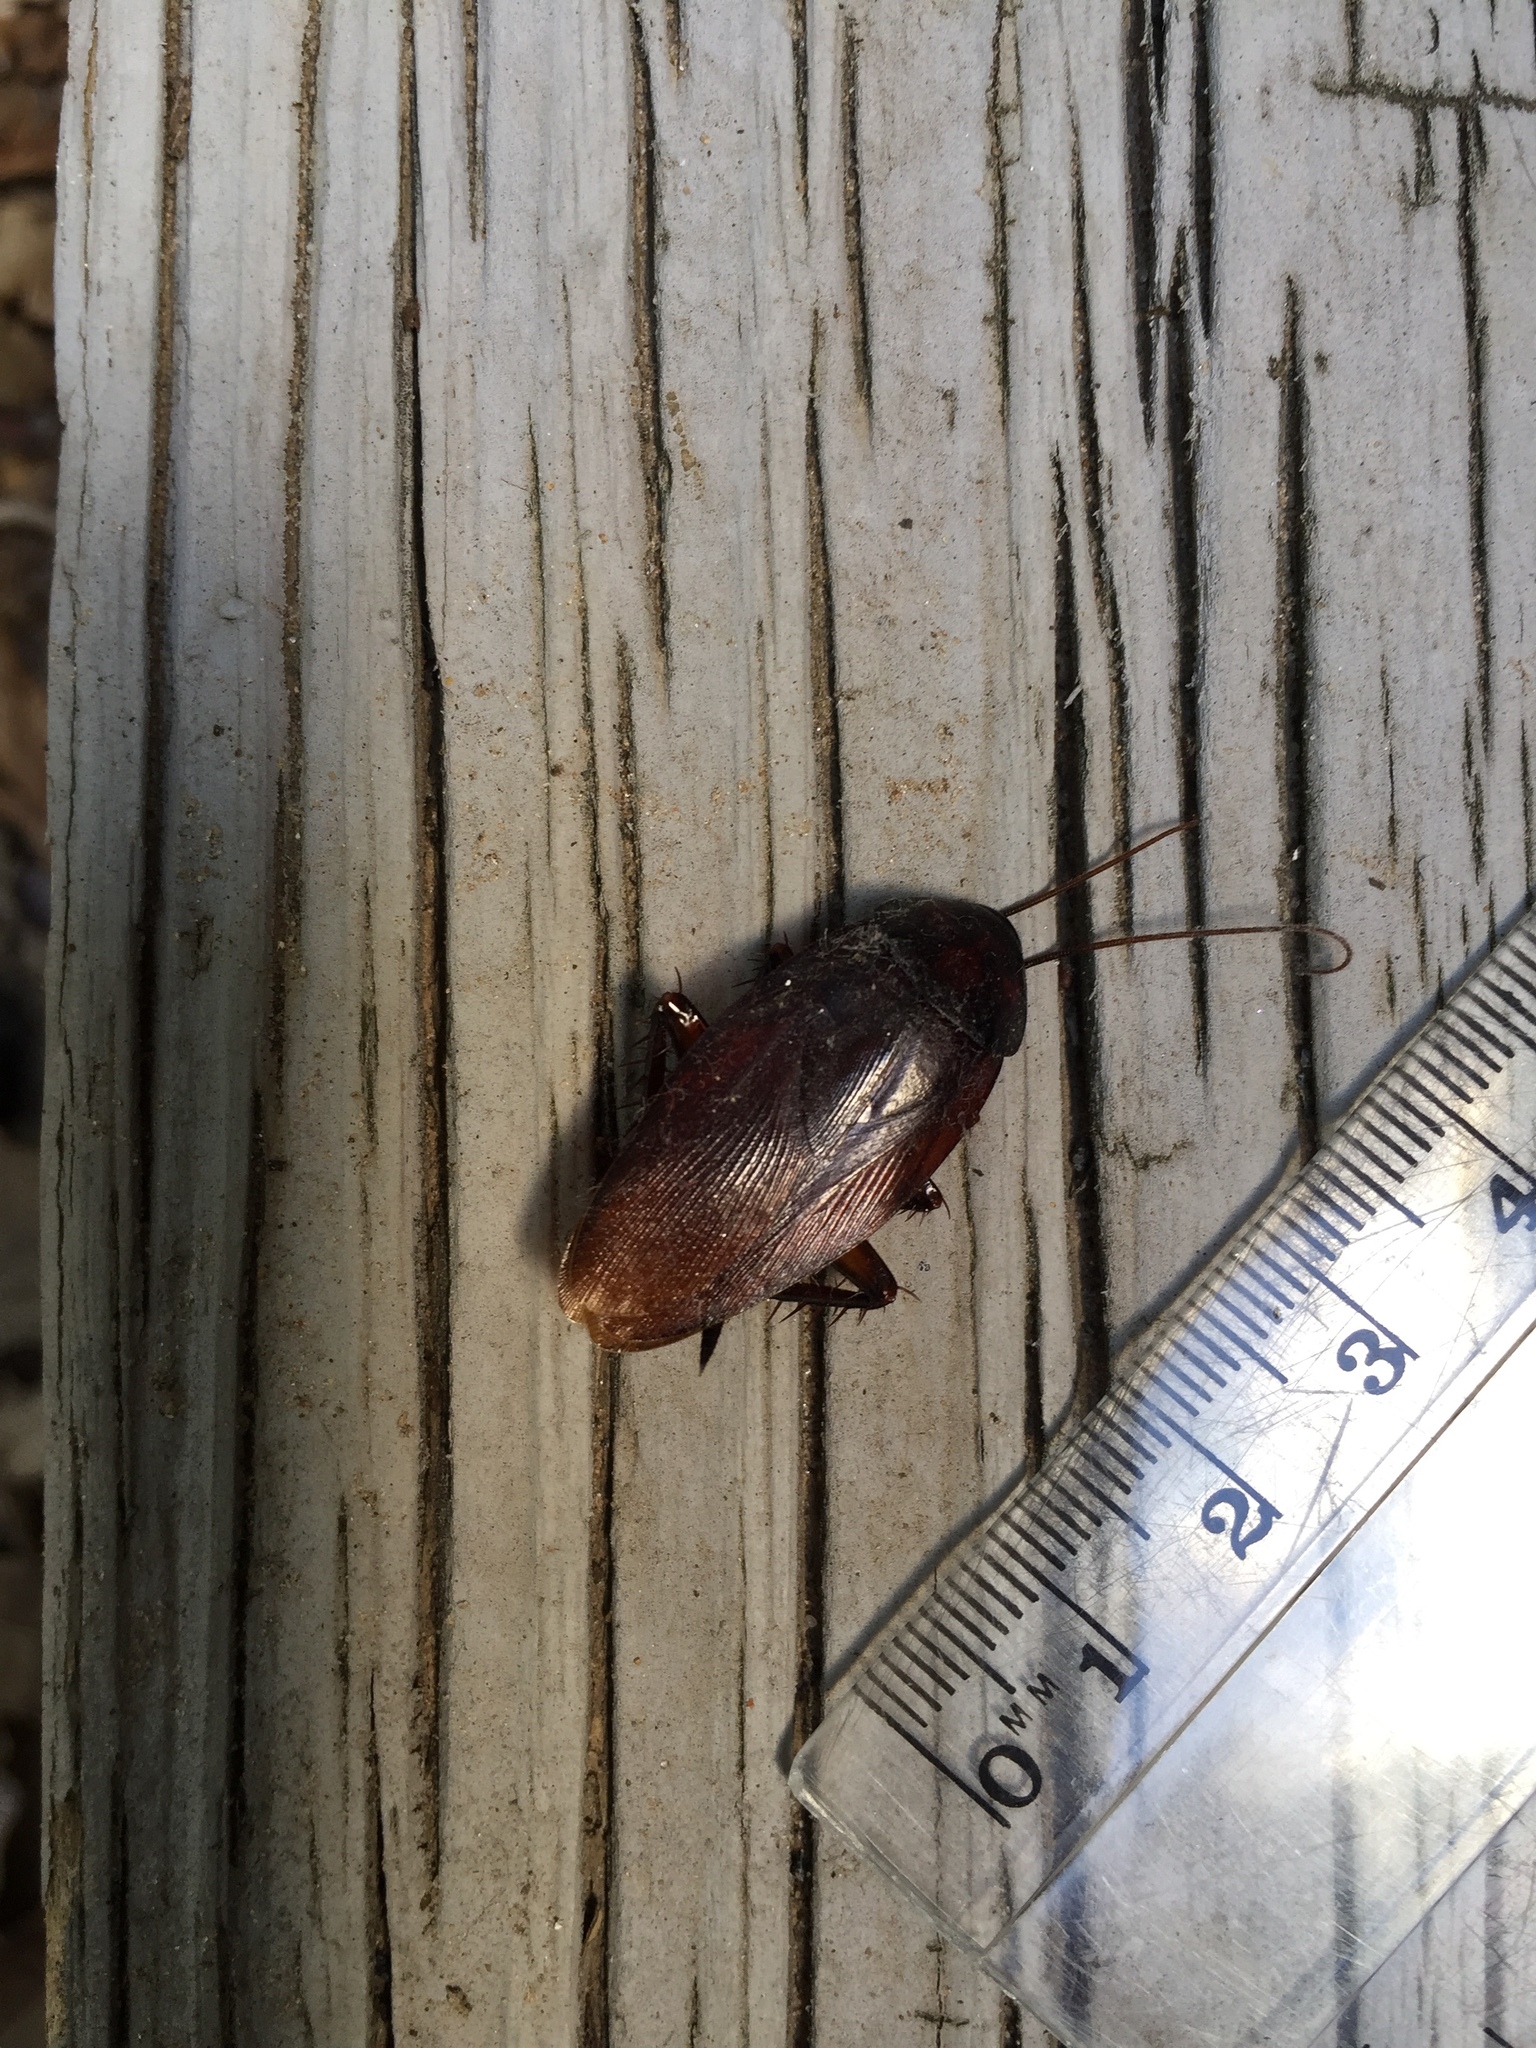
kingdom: Animalia
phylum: Arthropoda
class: Insecta
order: Blattodea
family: Blattidae
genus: Periplaneta
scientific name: Periplaneta fuliginosa
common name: Smokeybrown cockroad
